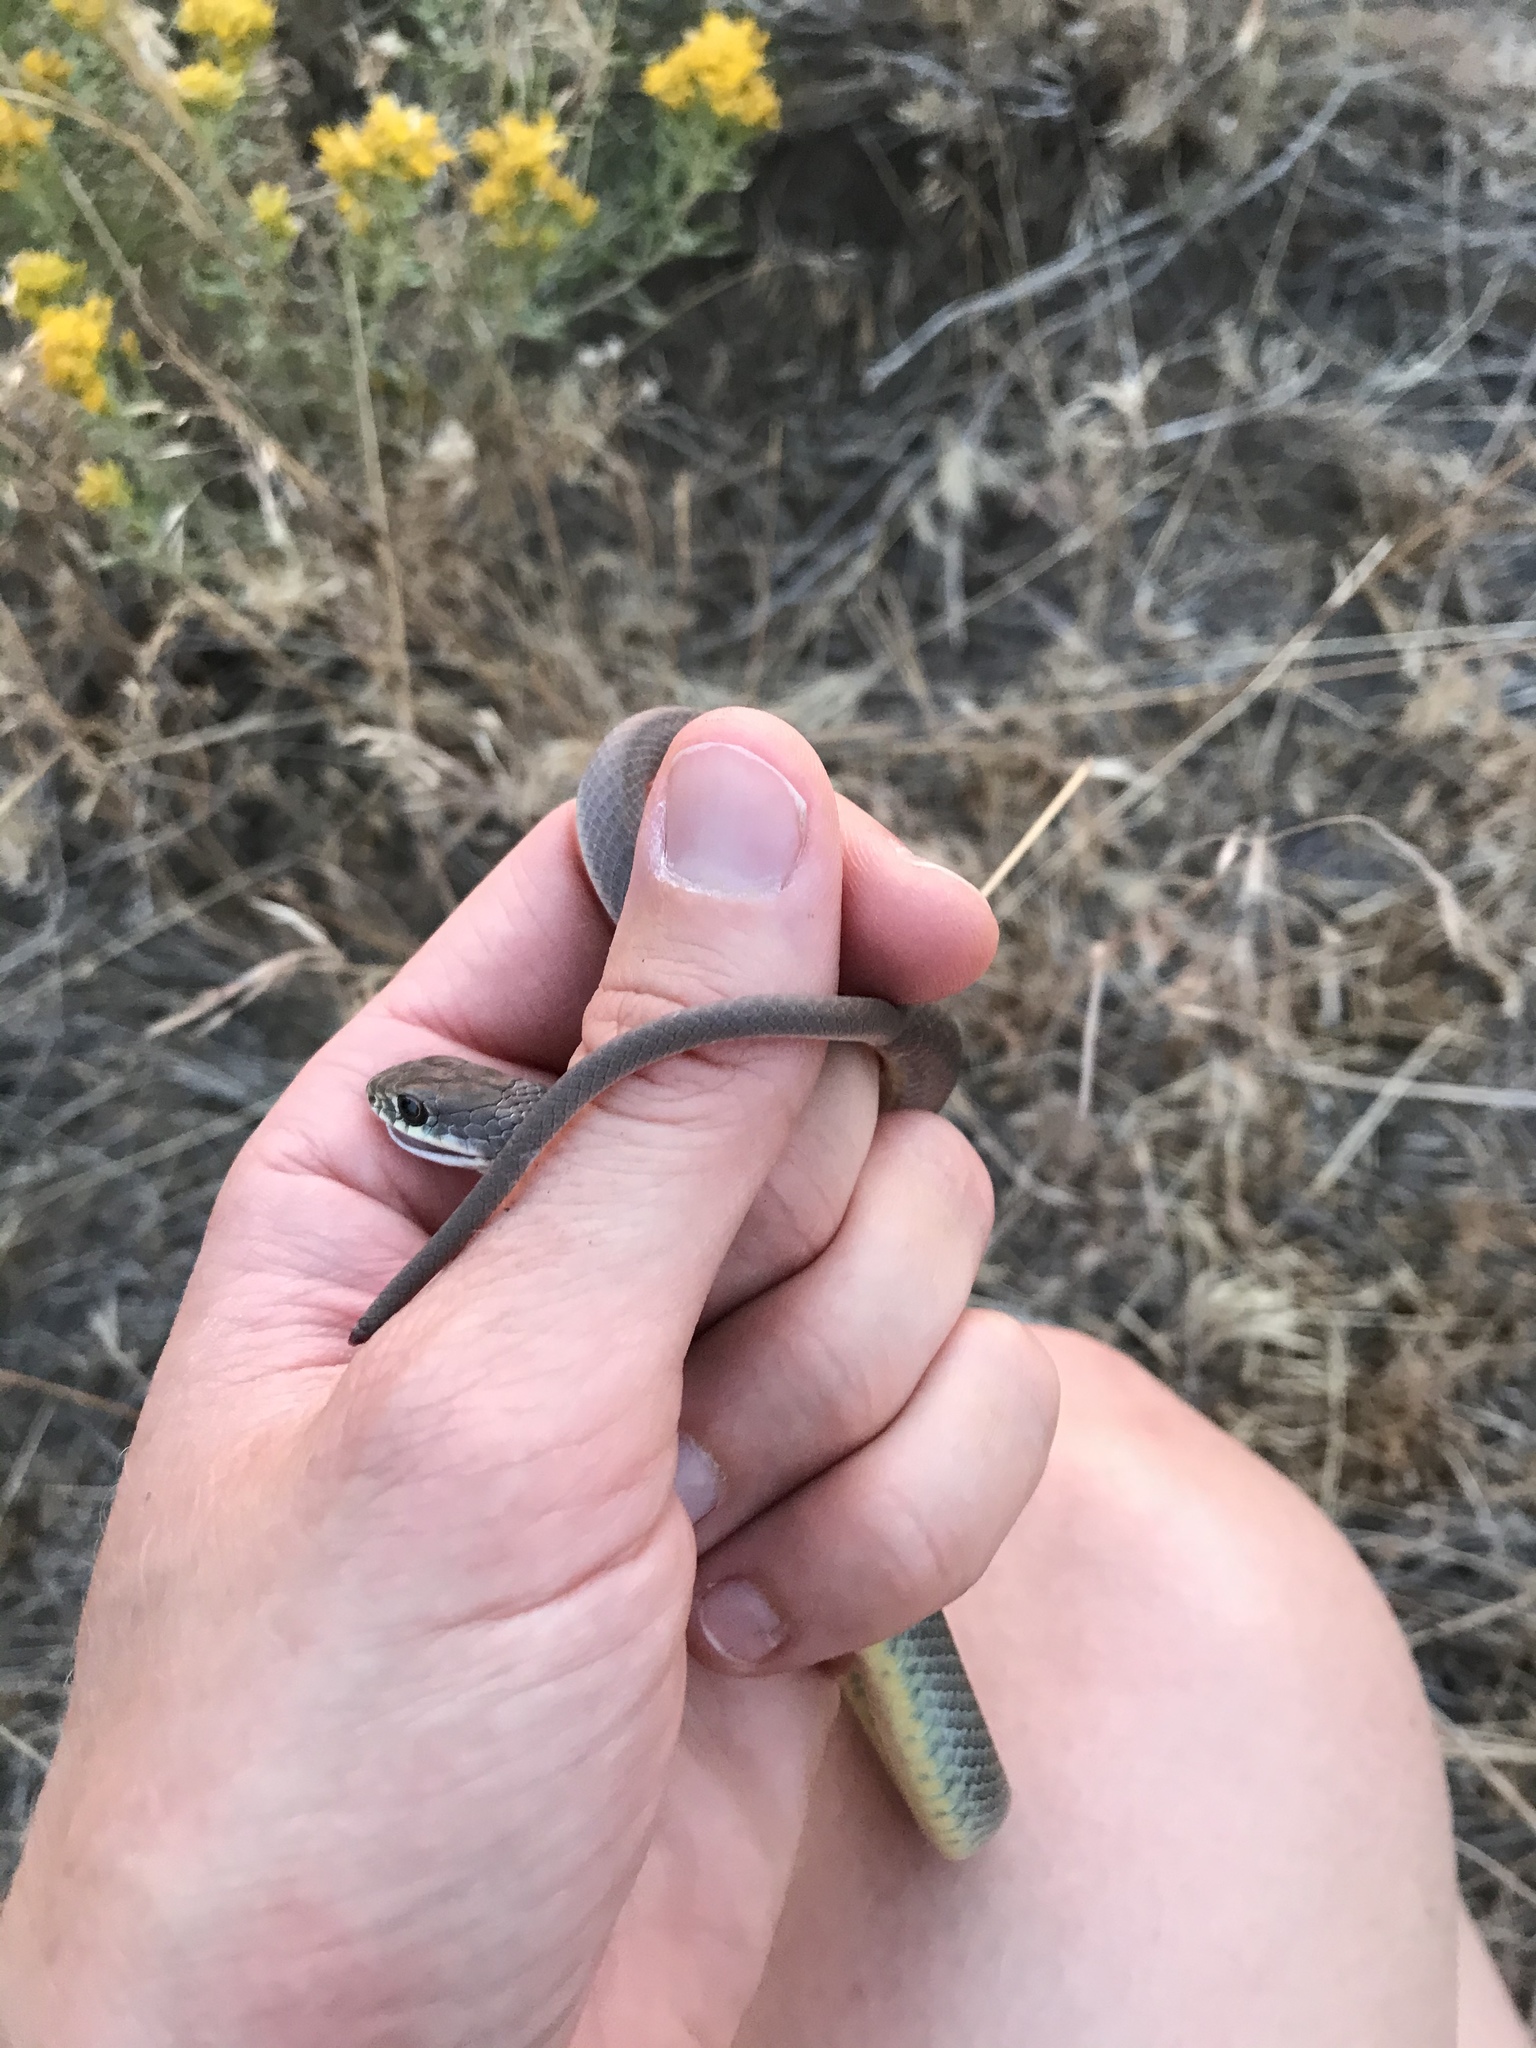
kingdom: Animalia
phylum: Chordata
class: Squamata
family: Colubridae
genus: Coluber
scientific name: Coluber constrictor
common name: Eastern racer
